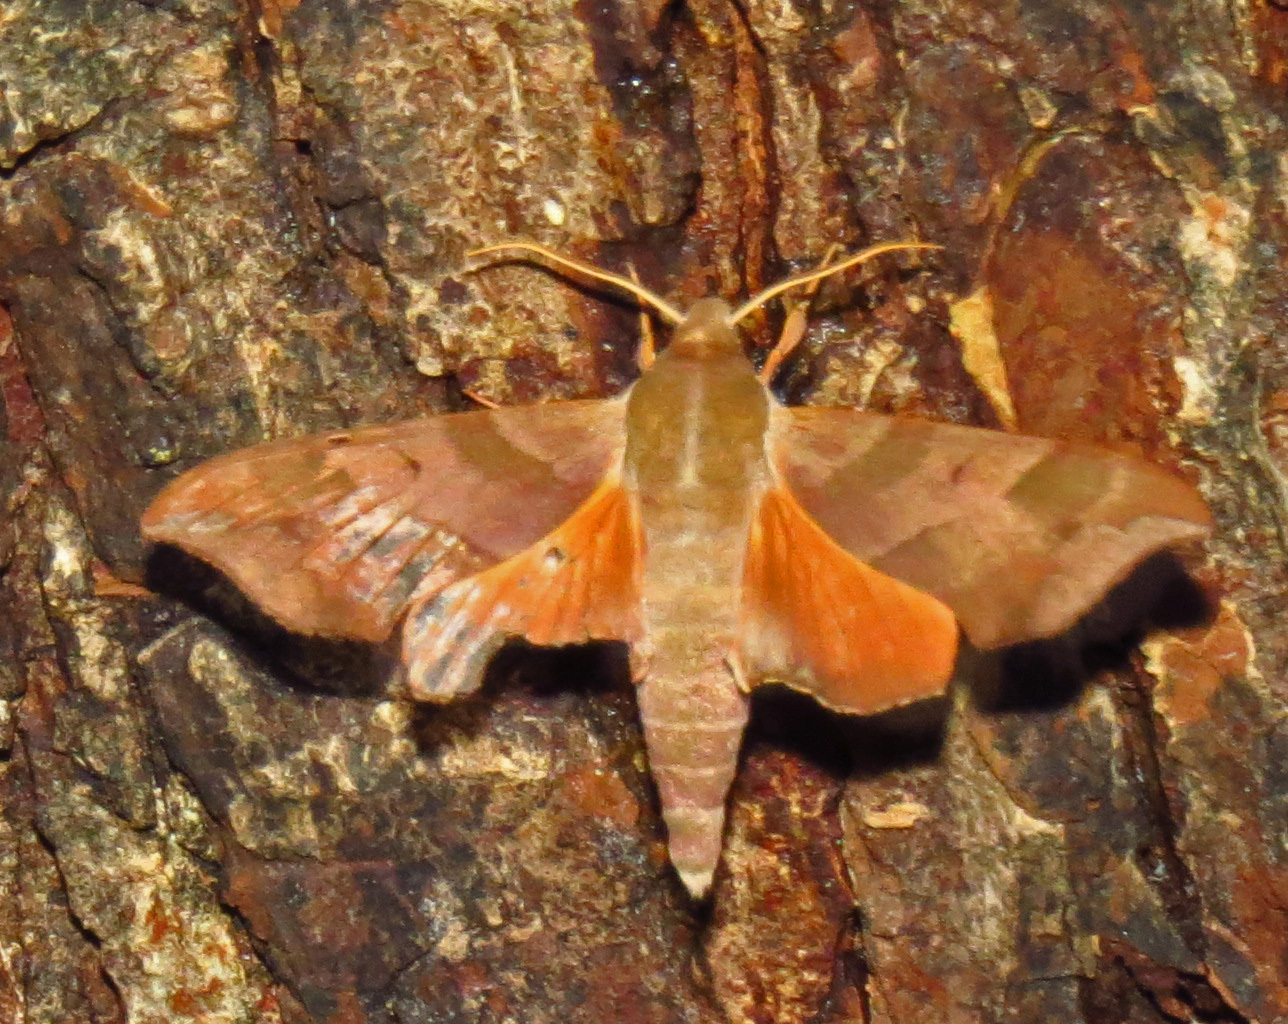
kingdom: Animalia
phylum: Arthropoda
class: Insecta
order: Lepidoptera
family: Sphingidae
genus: Darapsa
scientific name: Darapsa myron
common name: Hog sphinx
